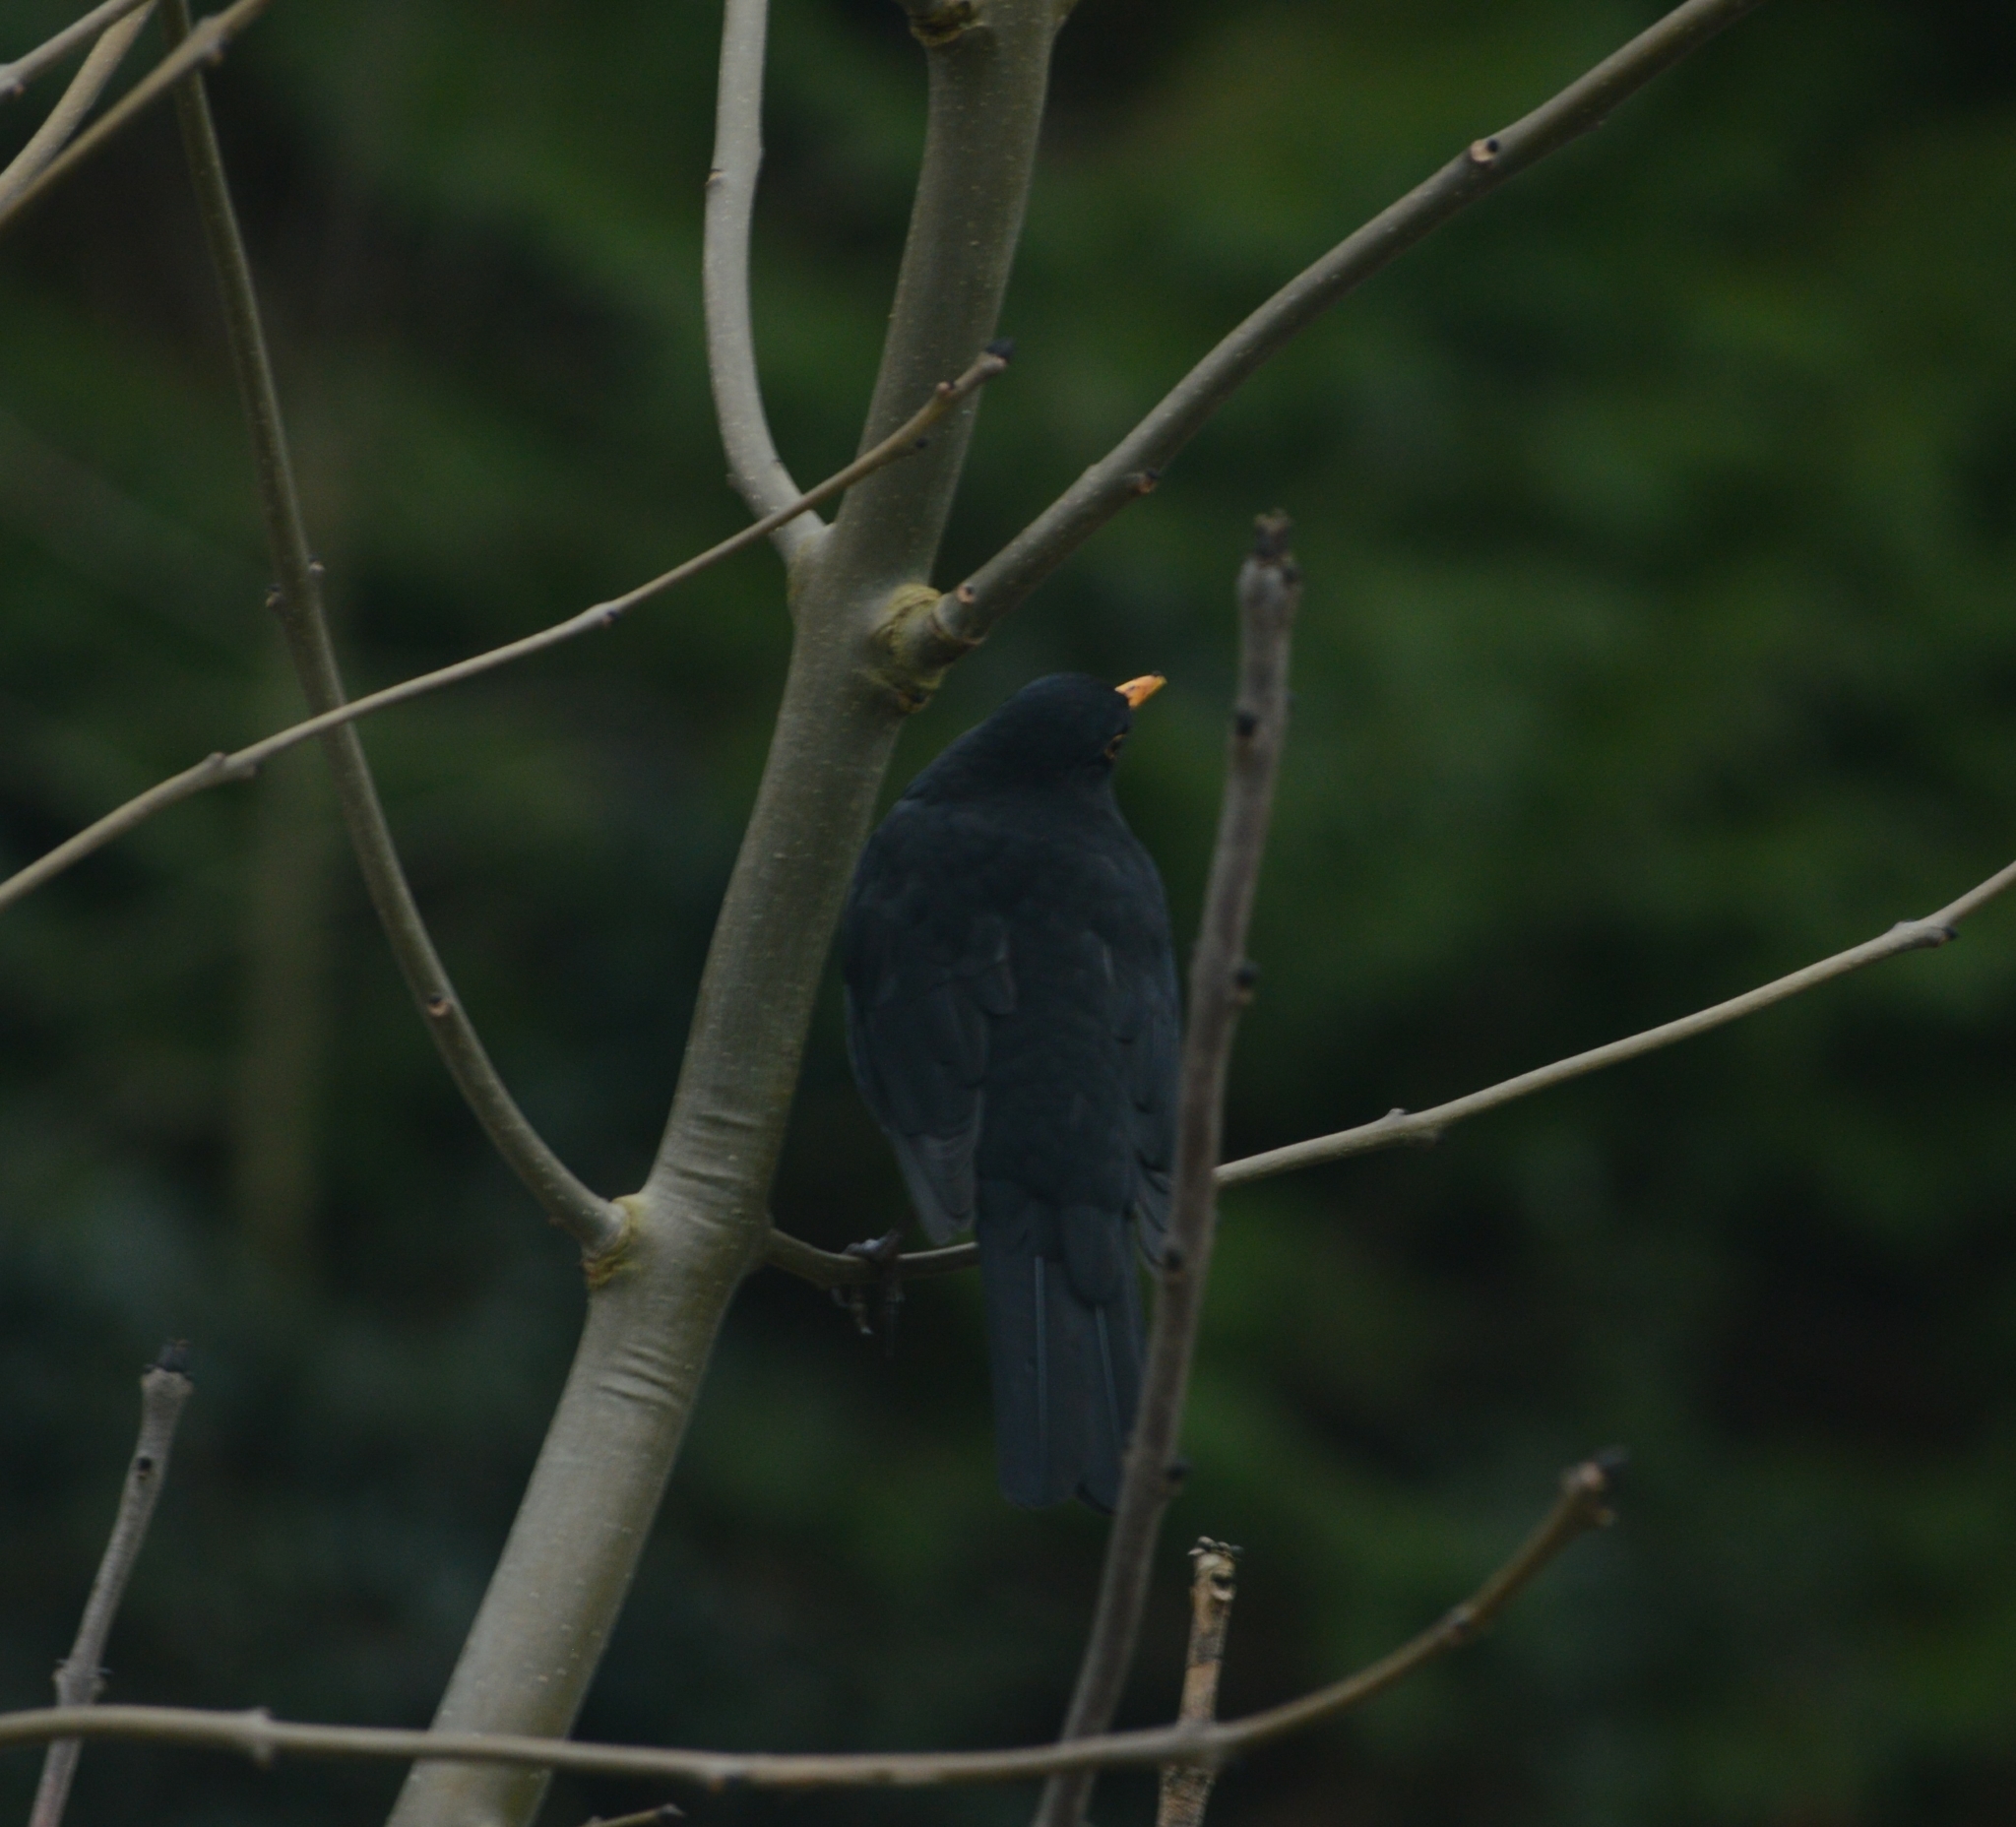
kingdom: Animalia
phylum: Chordata
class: Aves
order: Passeriformes
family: Turdidae
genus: Turdus
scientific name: Turdus merula
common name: Common blackbird
